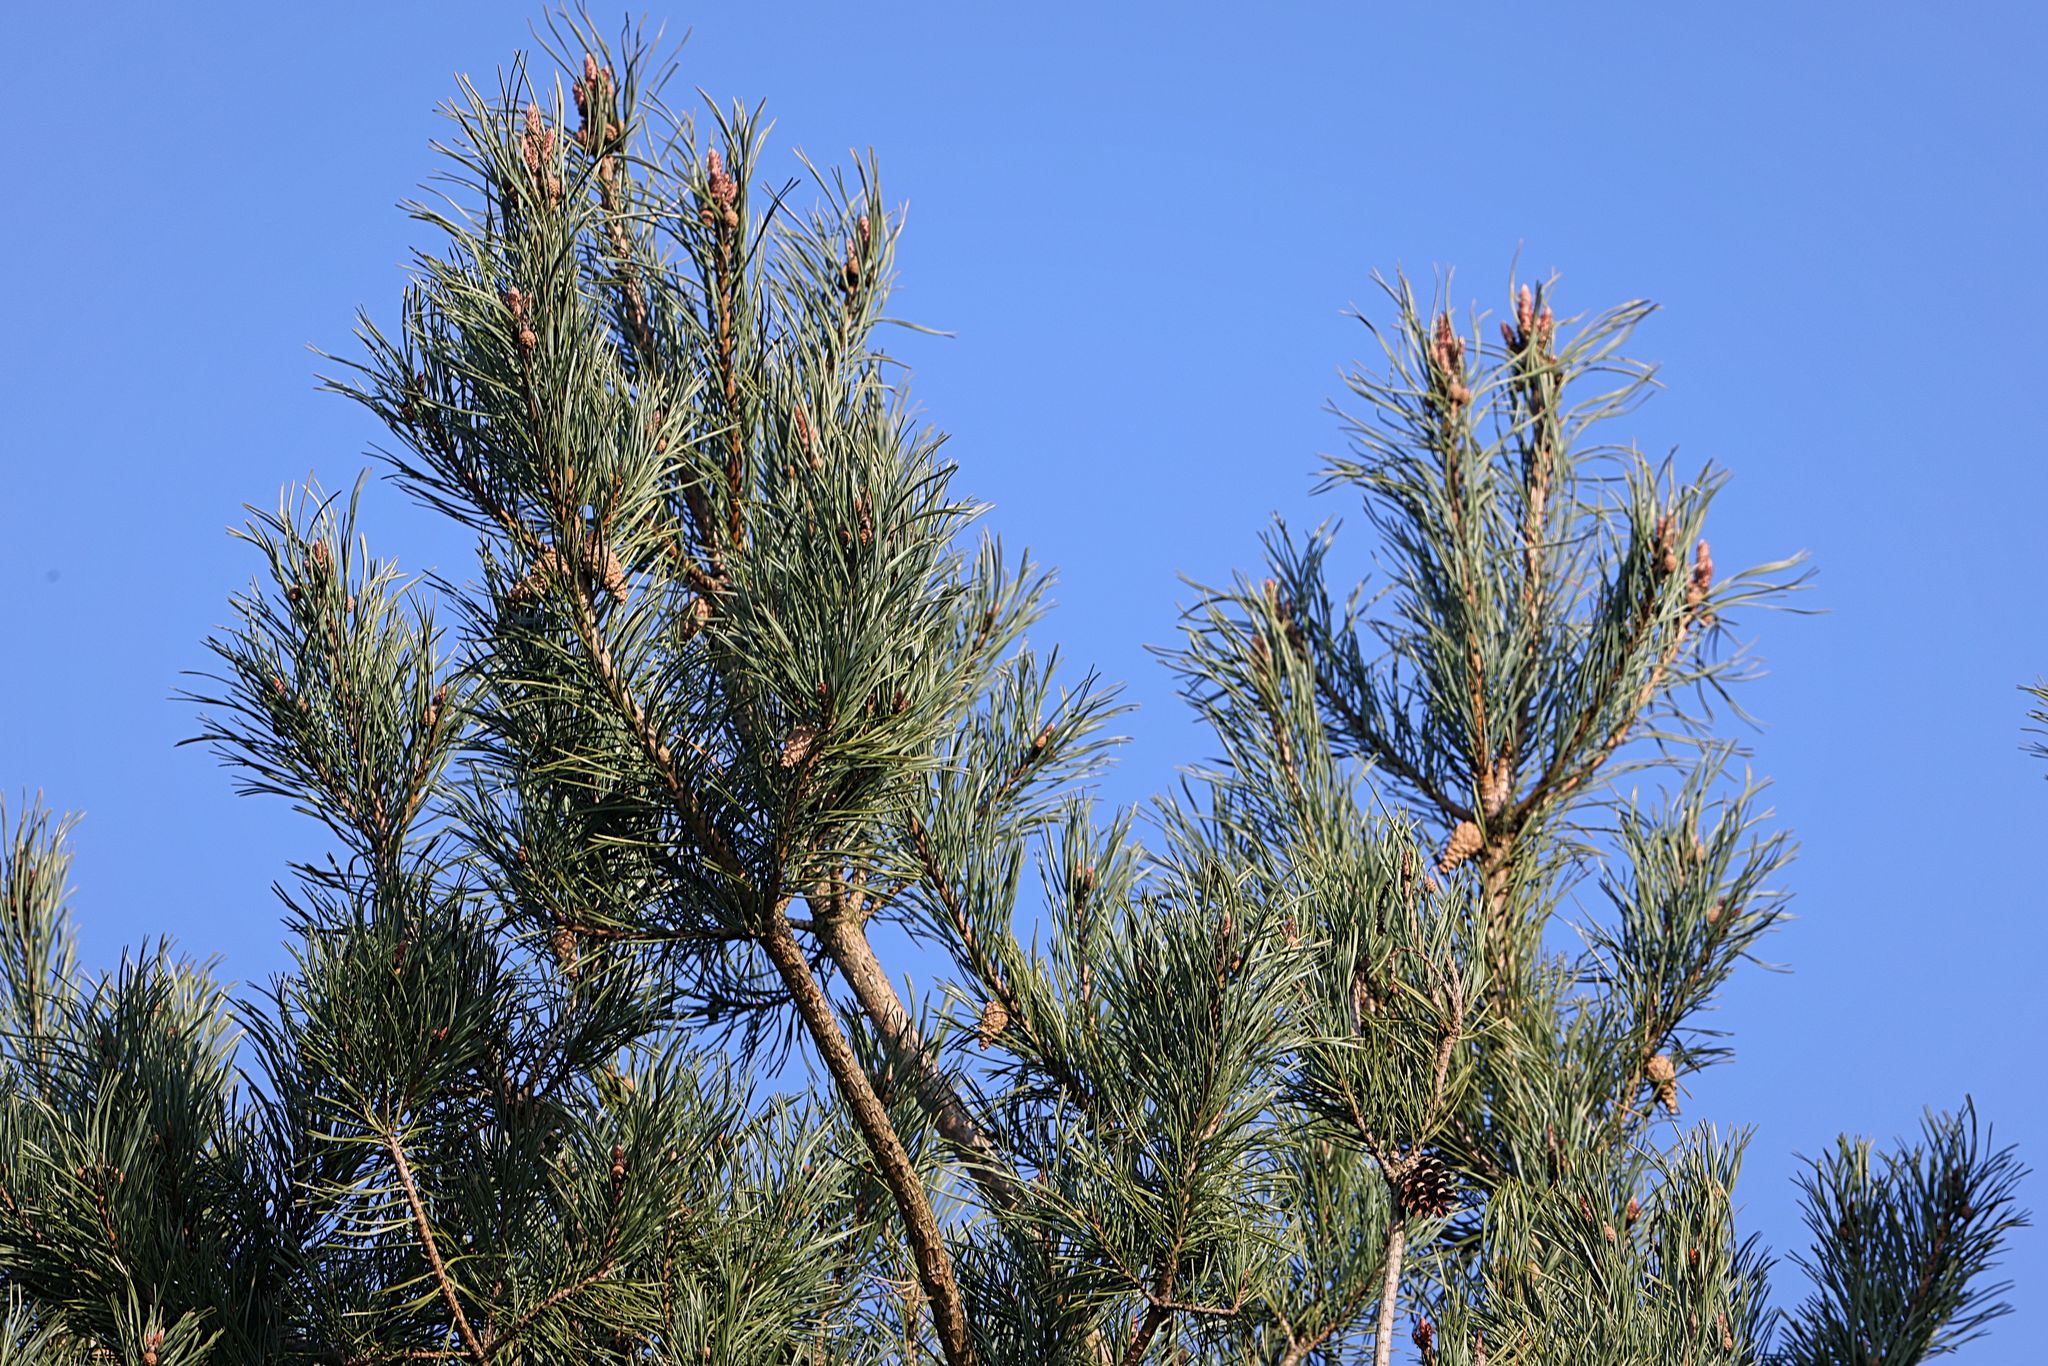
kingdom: Plantae
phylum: Tracheophyta
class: Pinopsida
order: Pinales
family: Pinaceae
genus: Pinus
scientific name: Pinus sylvestris
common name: Scots pine
